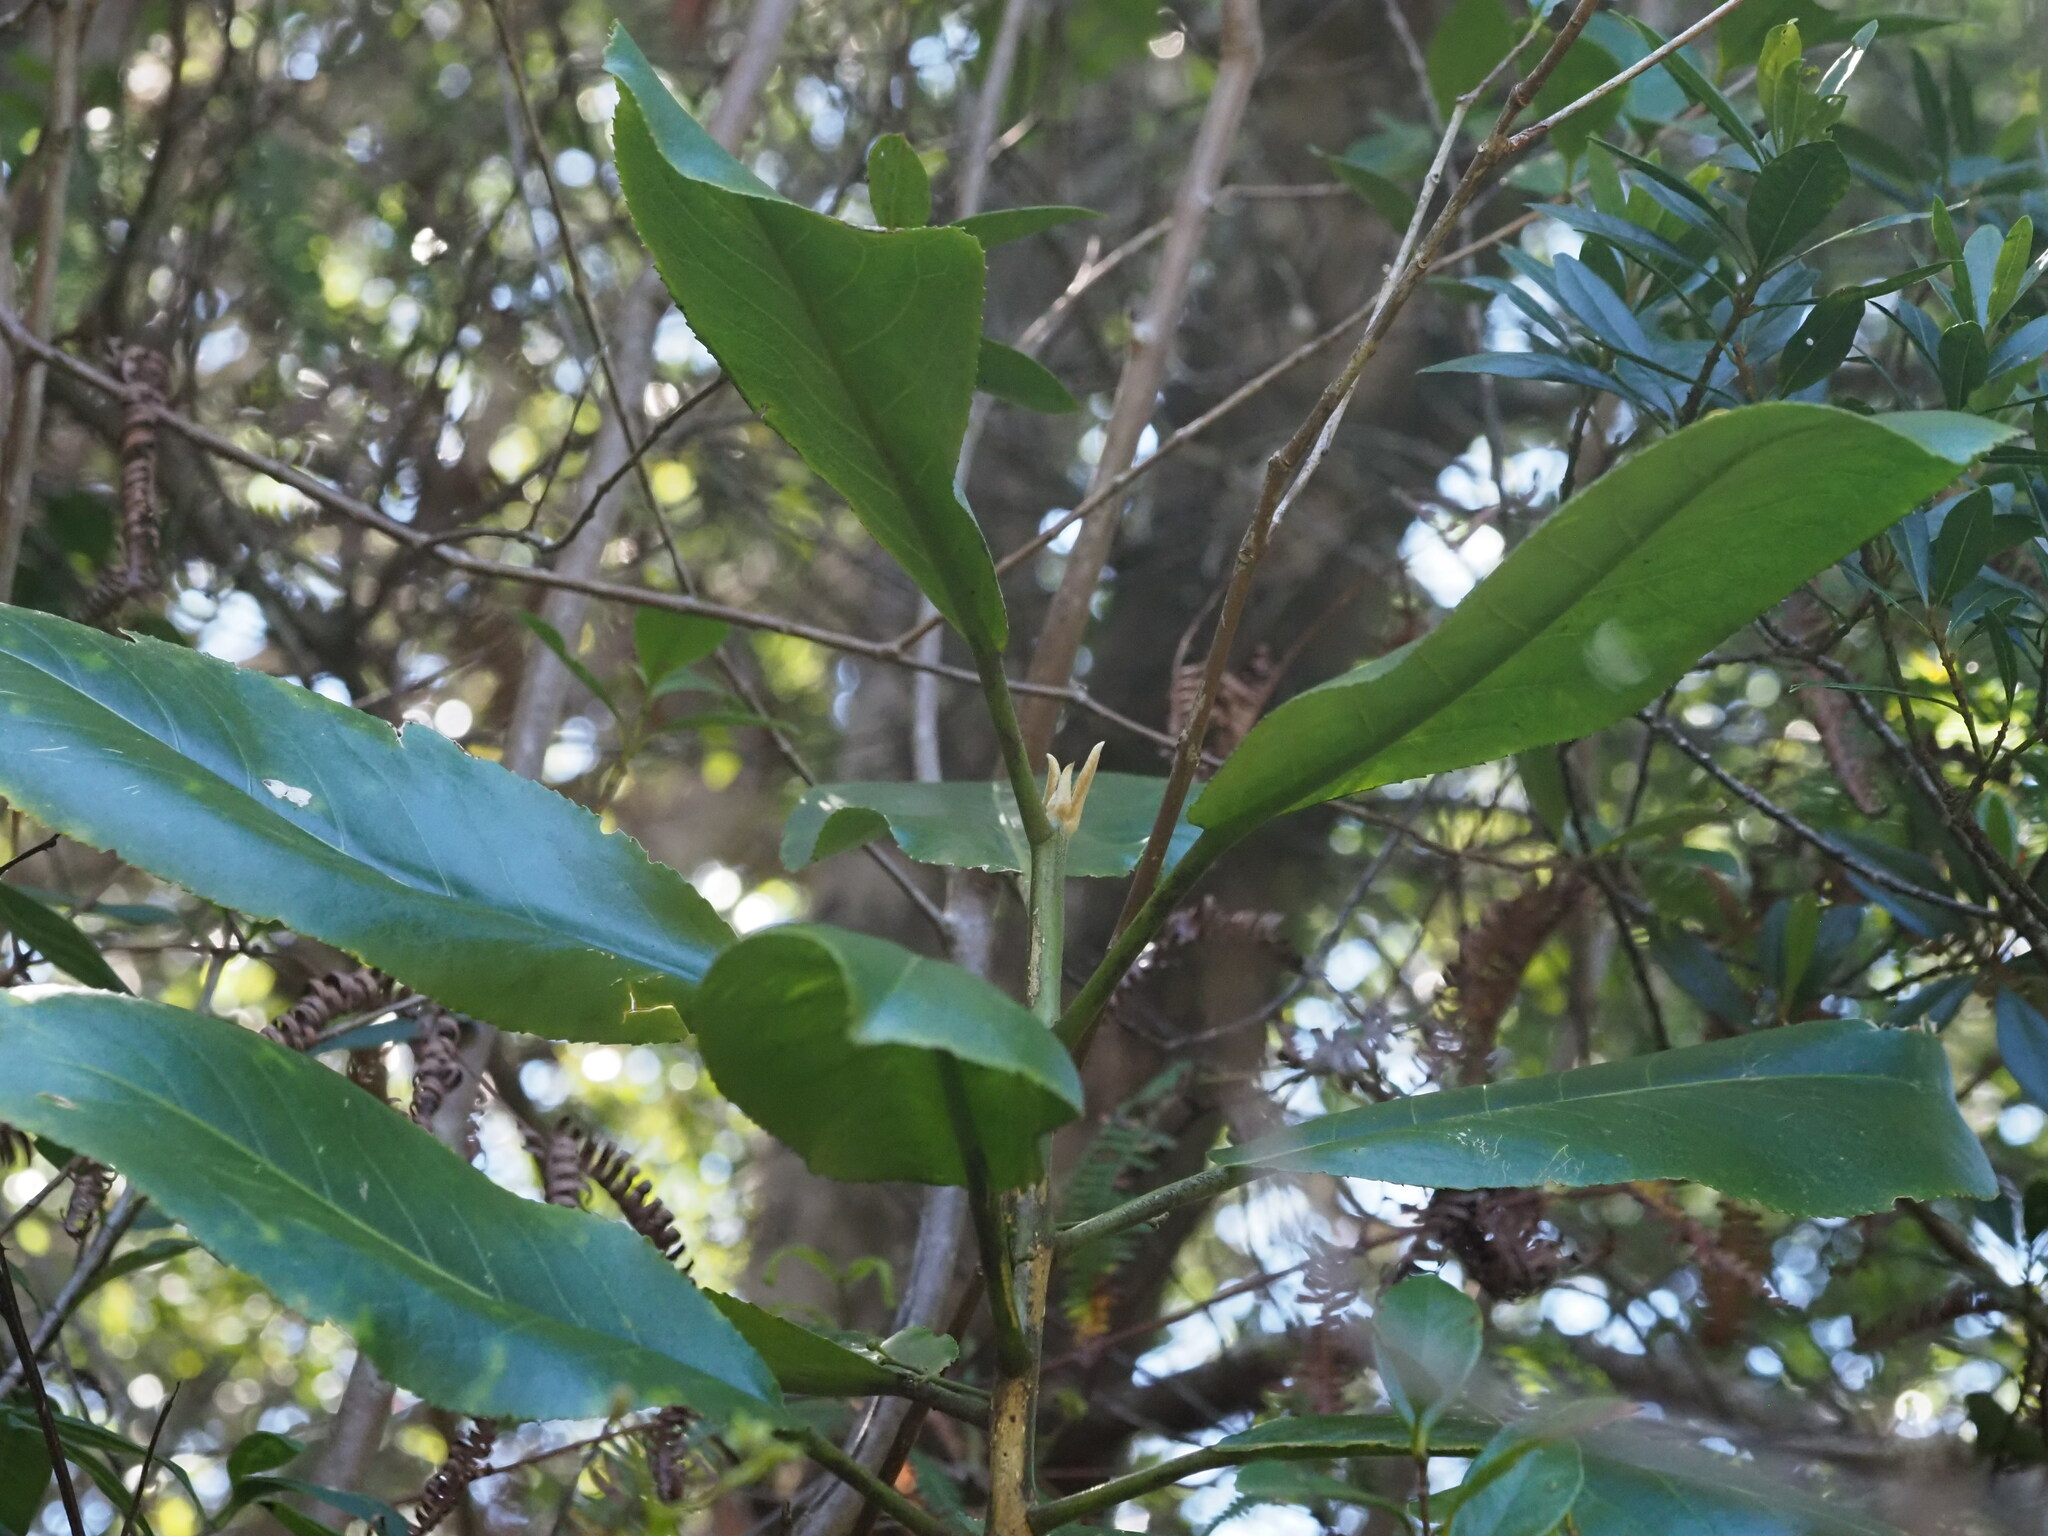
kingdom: Plantae
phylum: Tracheophyta
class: Magnoliopsida
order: Malpighiales
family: Euphorbiaceae
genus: Claoxylon
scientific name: Claoxylon sandwicense
